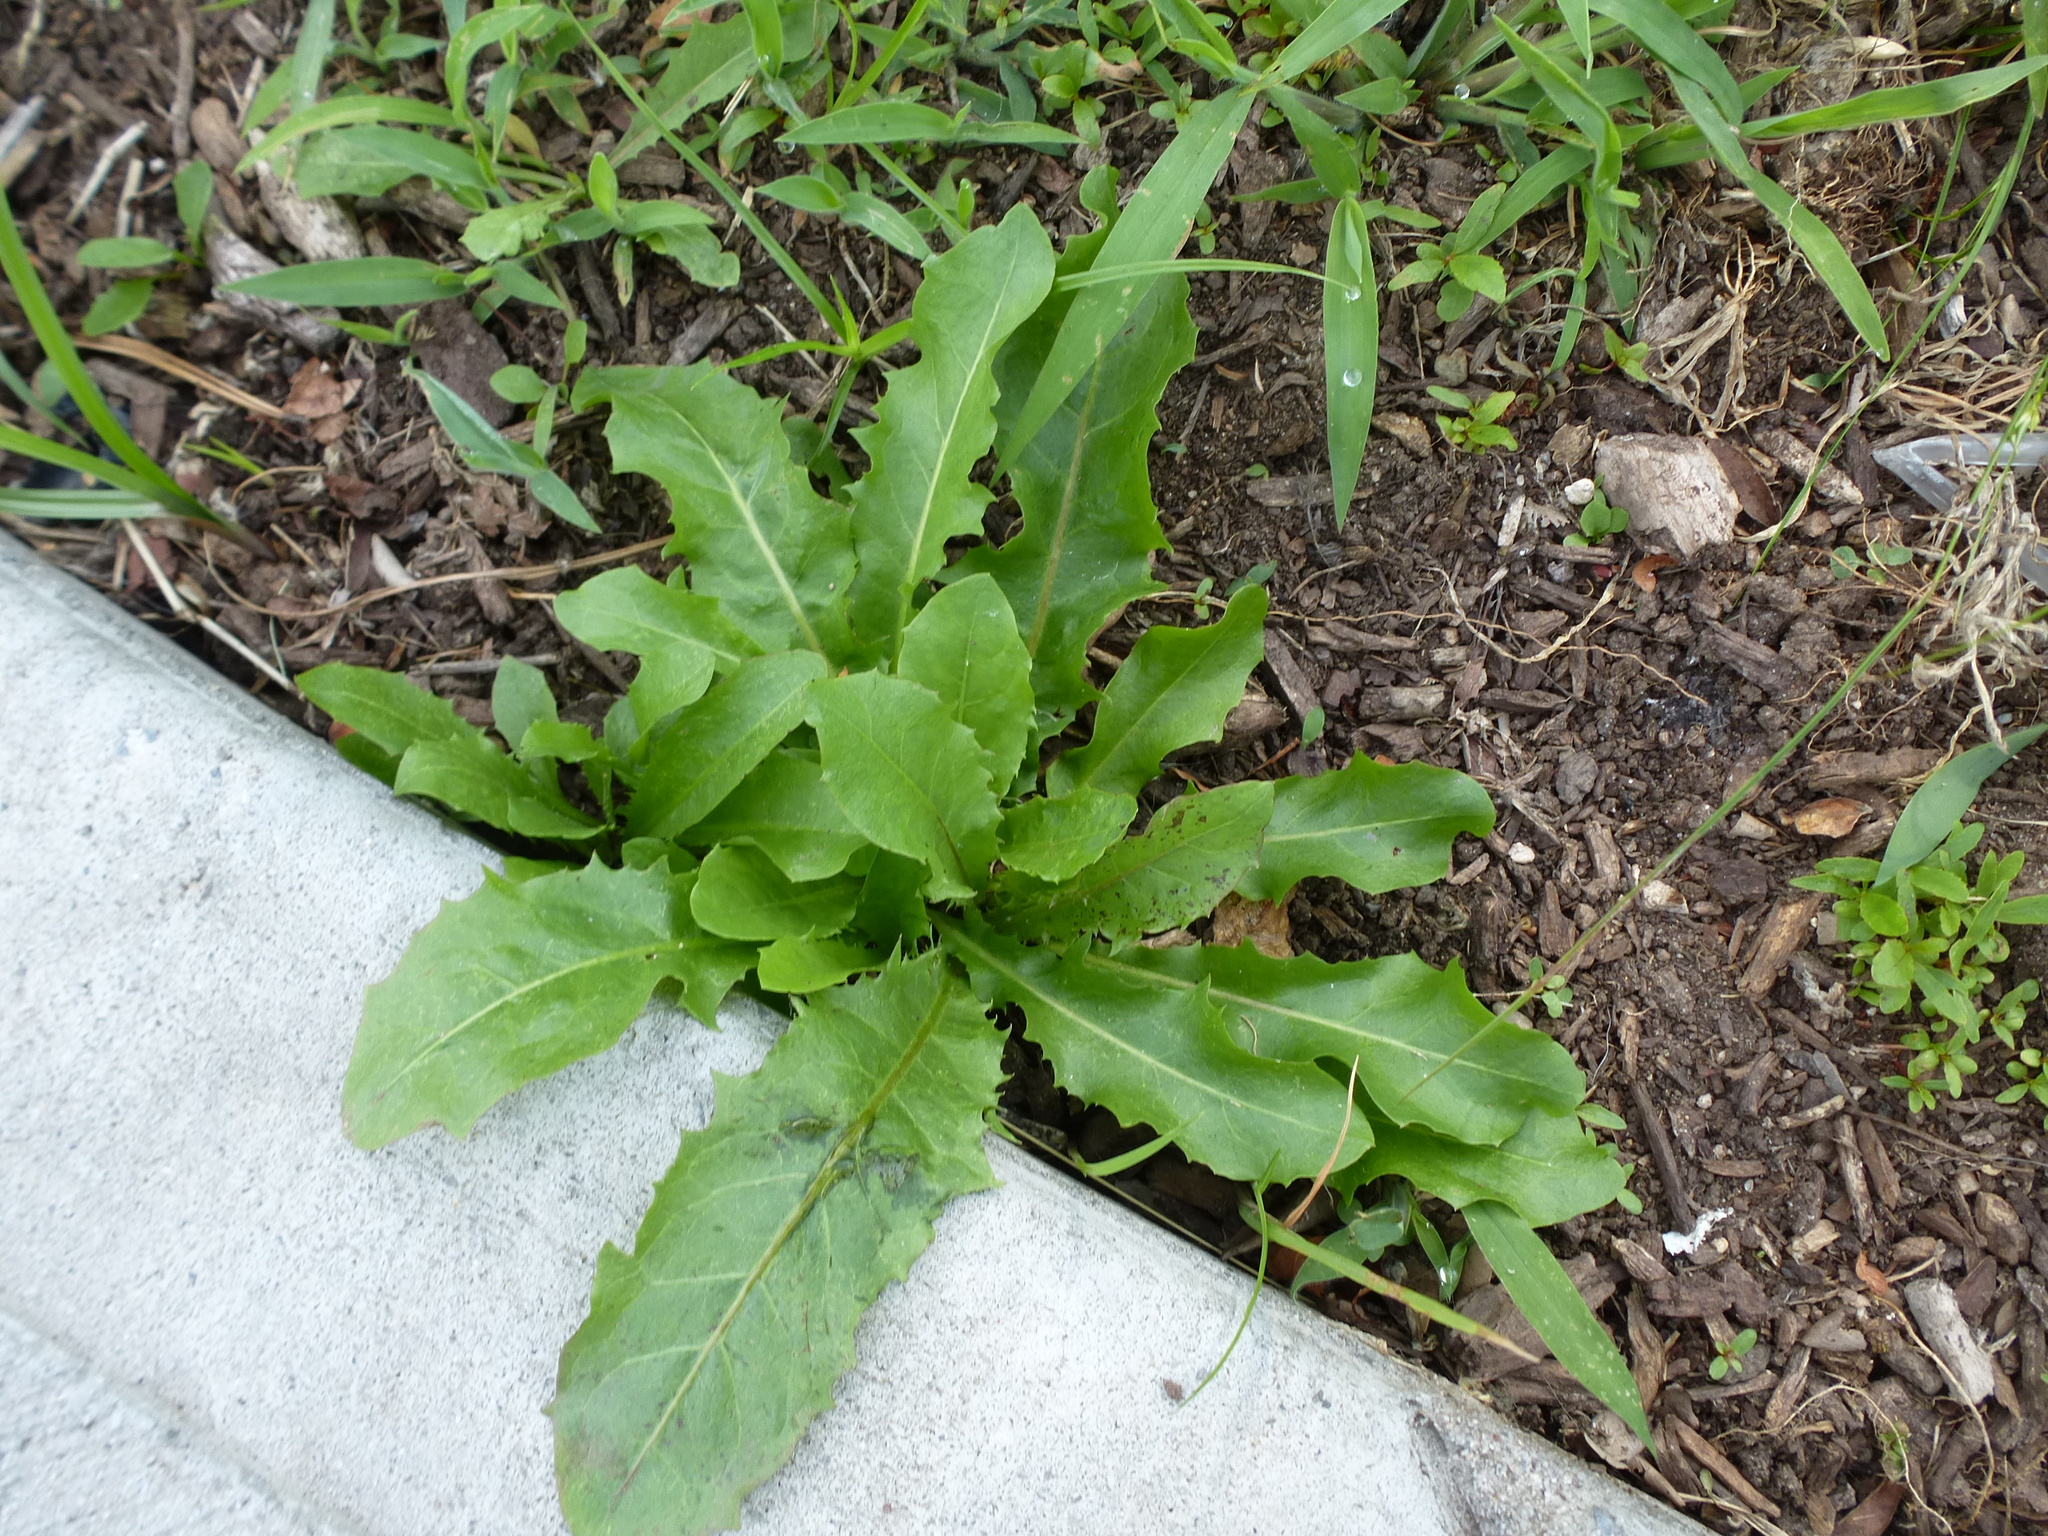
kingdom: Plantae
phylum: Tracheophyta
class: Magnoliopsida
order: Asterales
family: Asteraceae
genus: Taraxacum
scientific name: Taraxacum officinale
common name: Common dandelion
